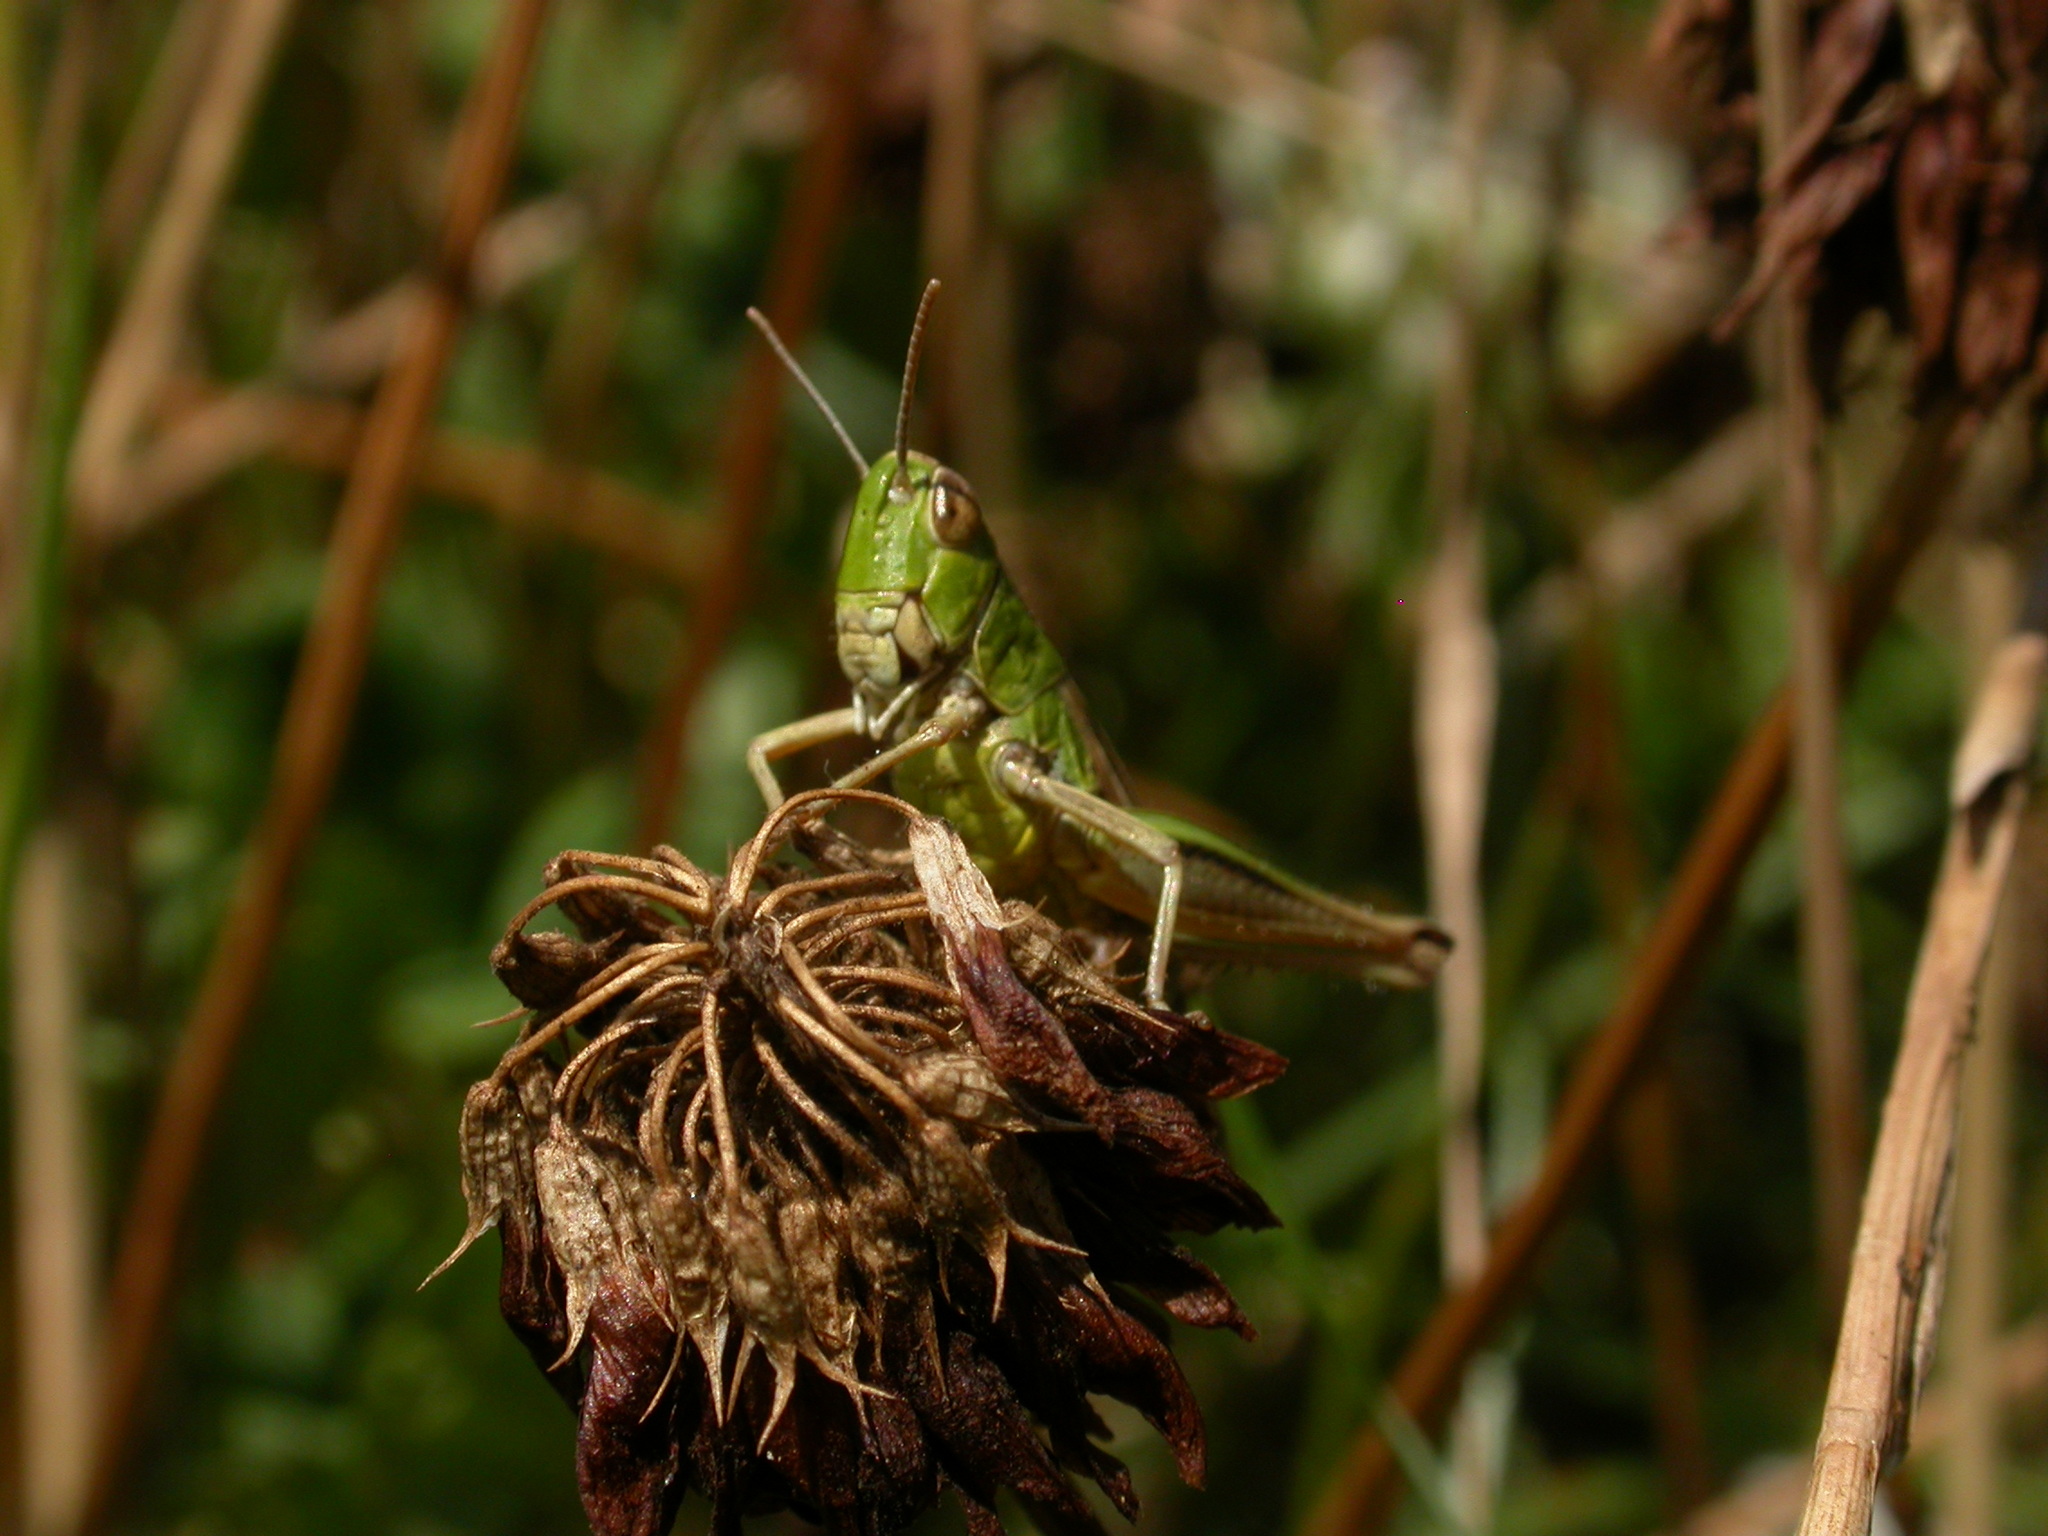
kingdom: Animalia
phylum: Arthropoda
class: Insecta
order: Orthoptera
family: Acrididae
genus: Pseudochorthippus
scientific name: Pseudochorthippus parallelus
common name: Meadow grasshopper
